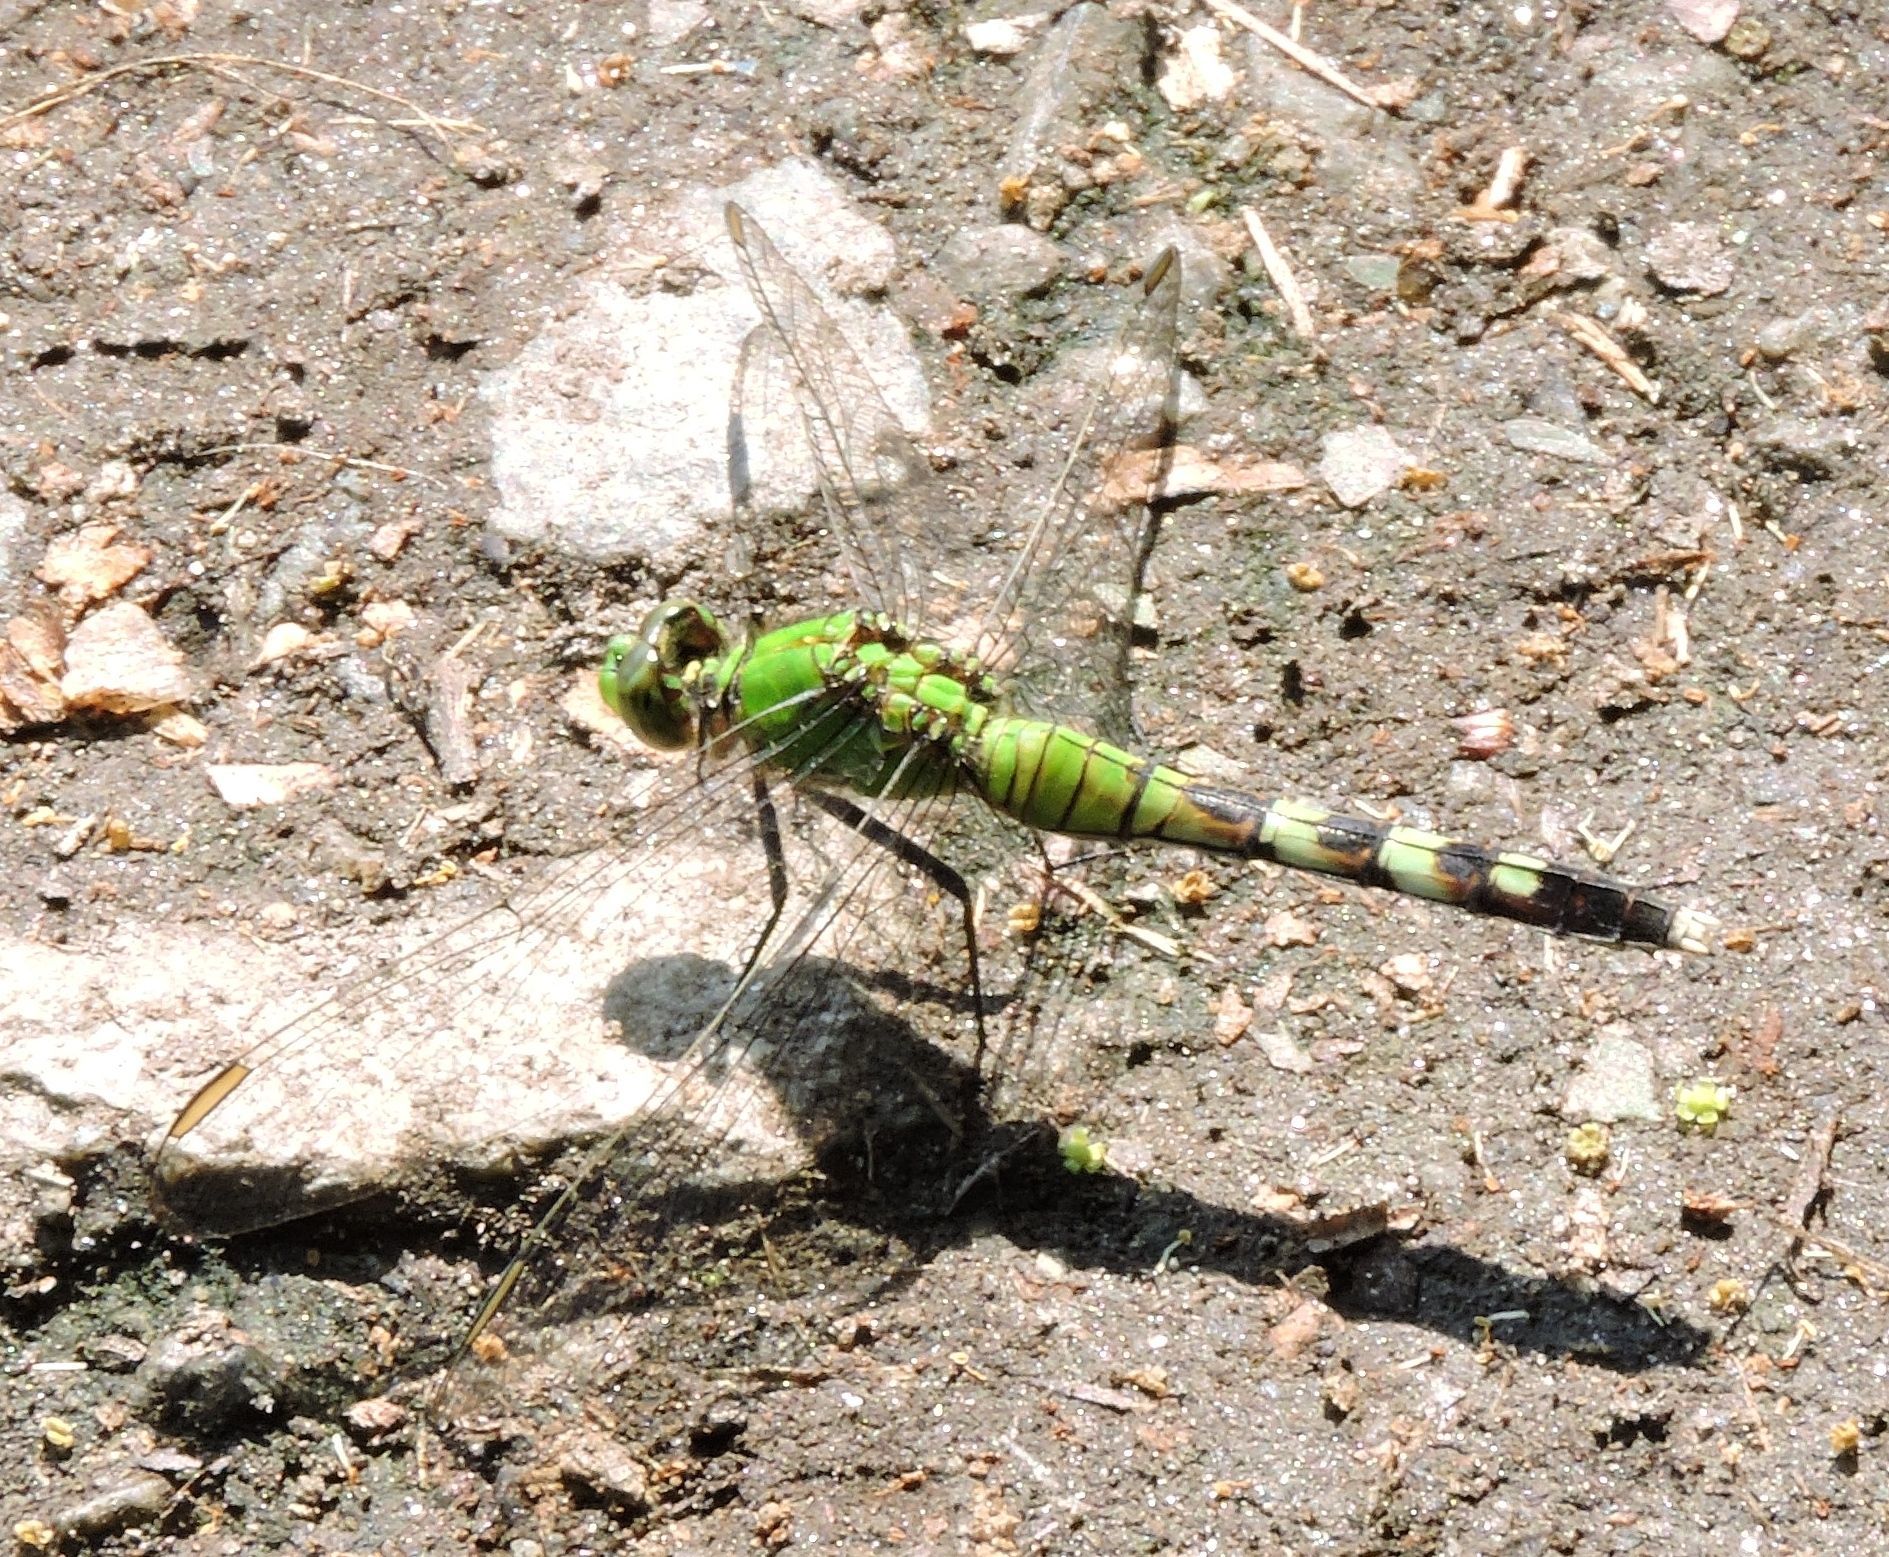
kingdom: Animalia
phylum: Arthropoda
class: Insecta
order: Odonata
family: Libellulidae
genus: Erythemis
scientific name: Erythemis simplicicollis
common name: Eastern pondhawk
